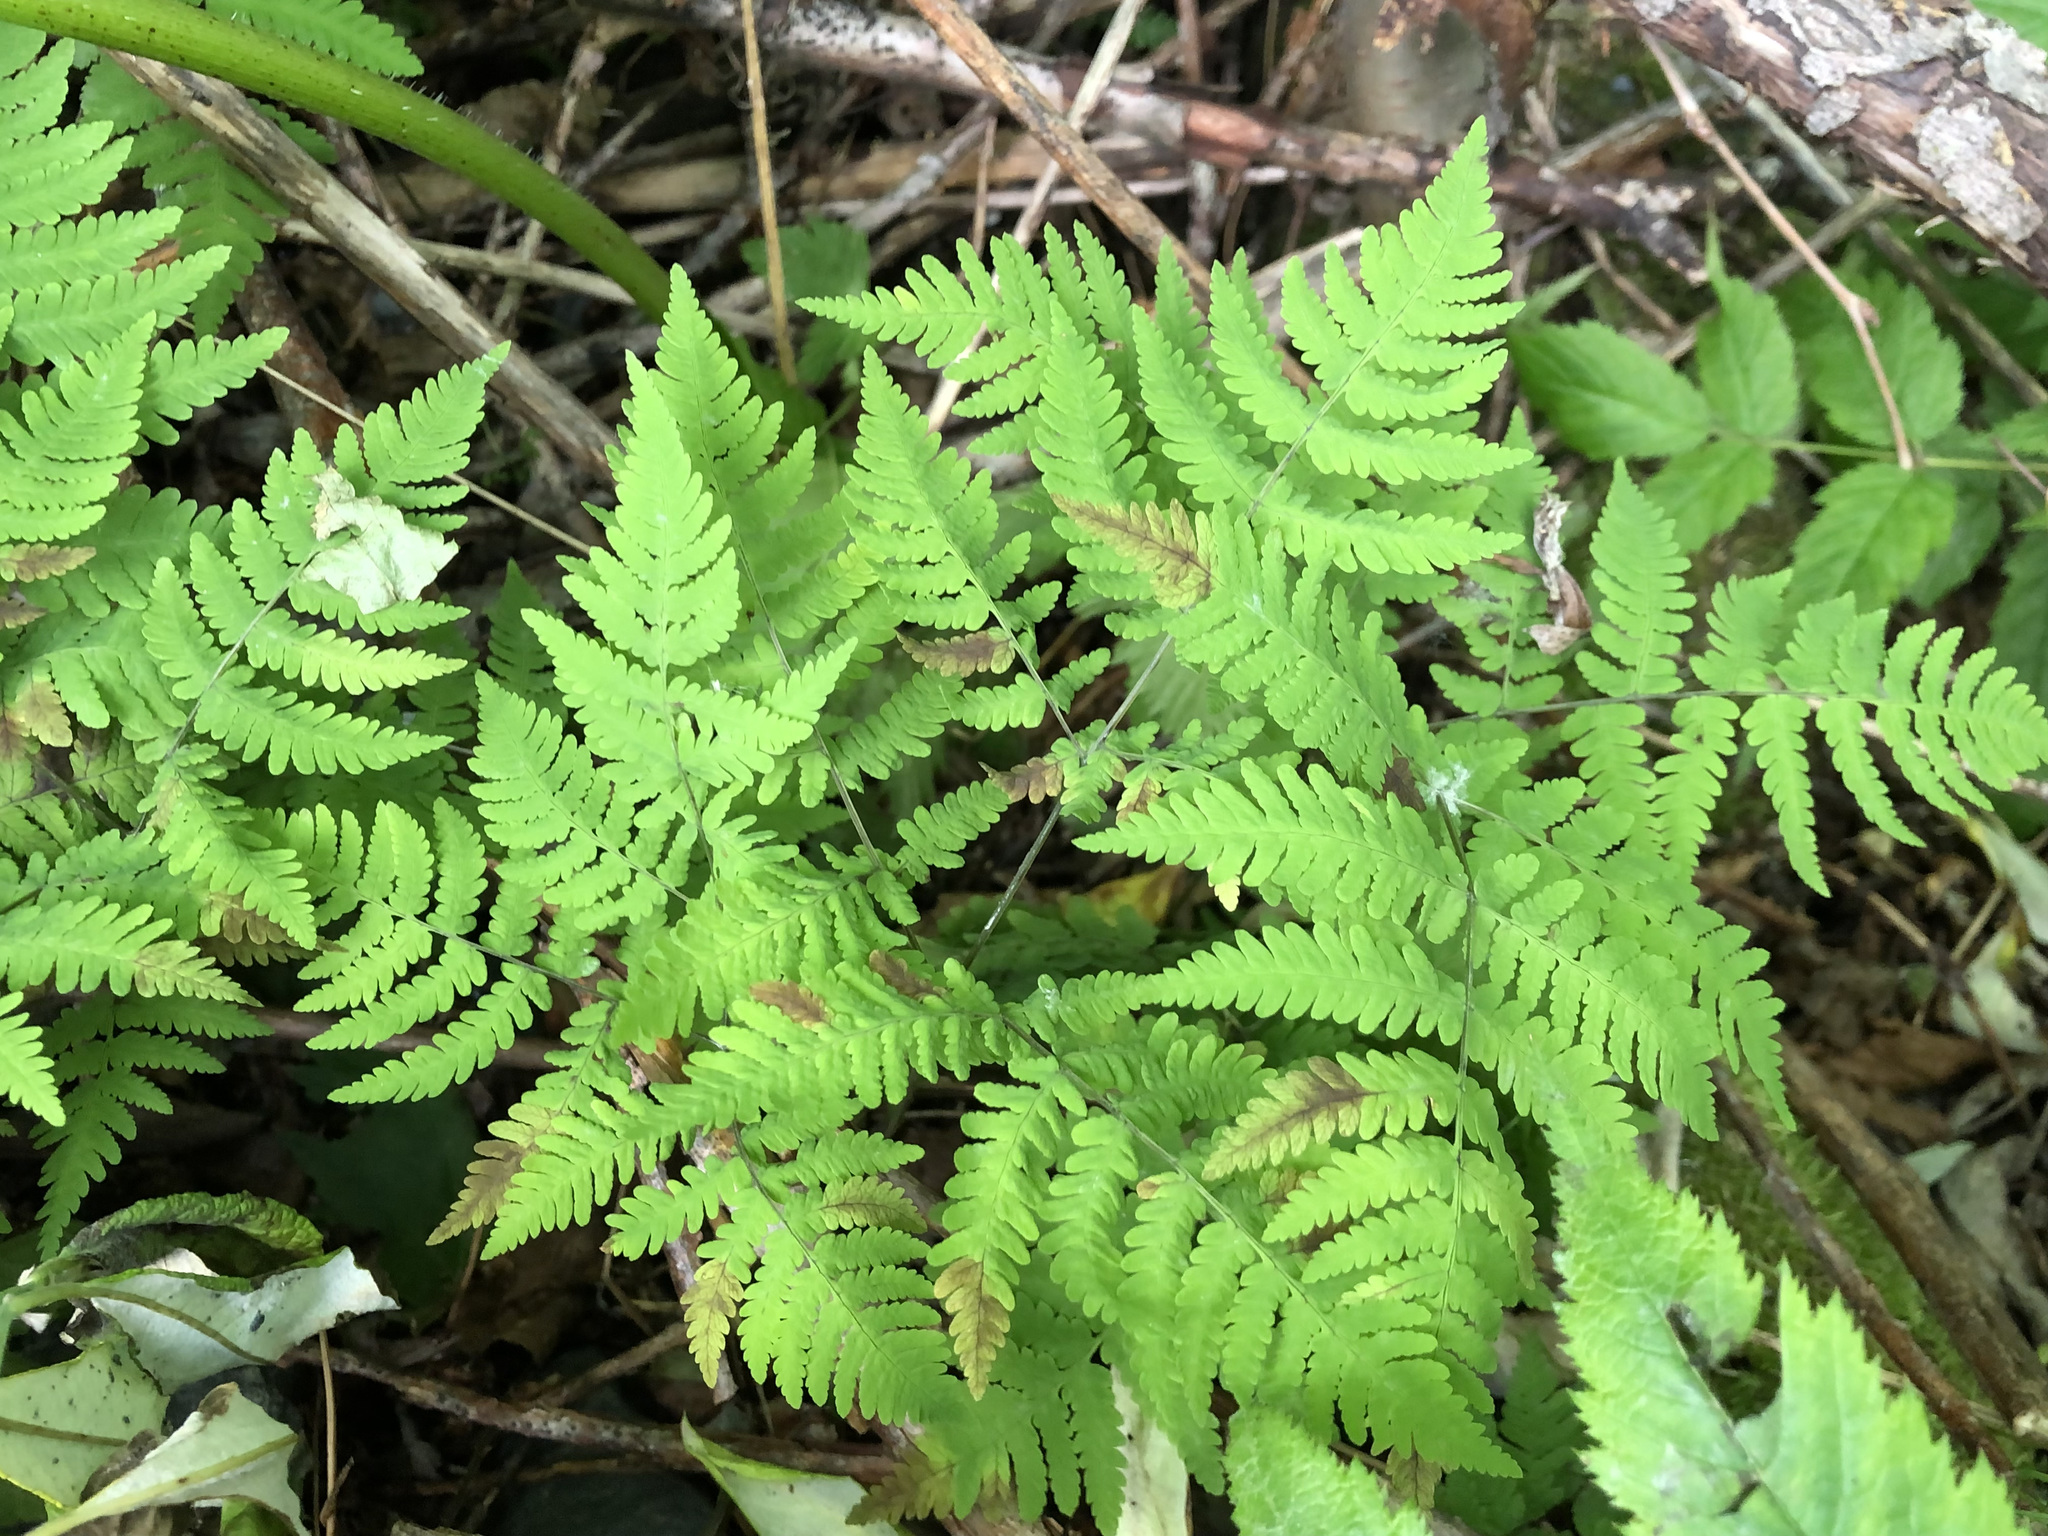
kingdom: Plantae
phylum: Tracheophyta
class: Polypodiopsida
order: Polypodiales
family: Cystopteridaceae
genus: Gymnocarpium
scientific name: Gymnocarpium disjunctum
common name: Western oak fern
